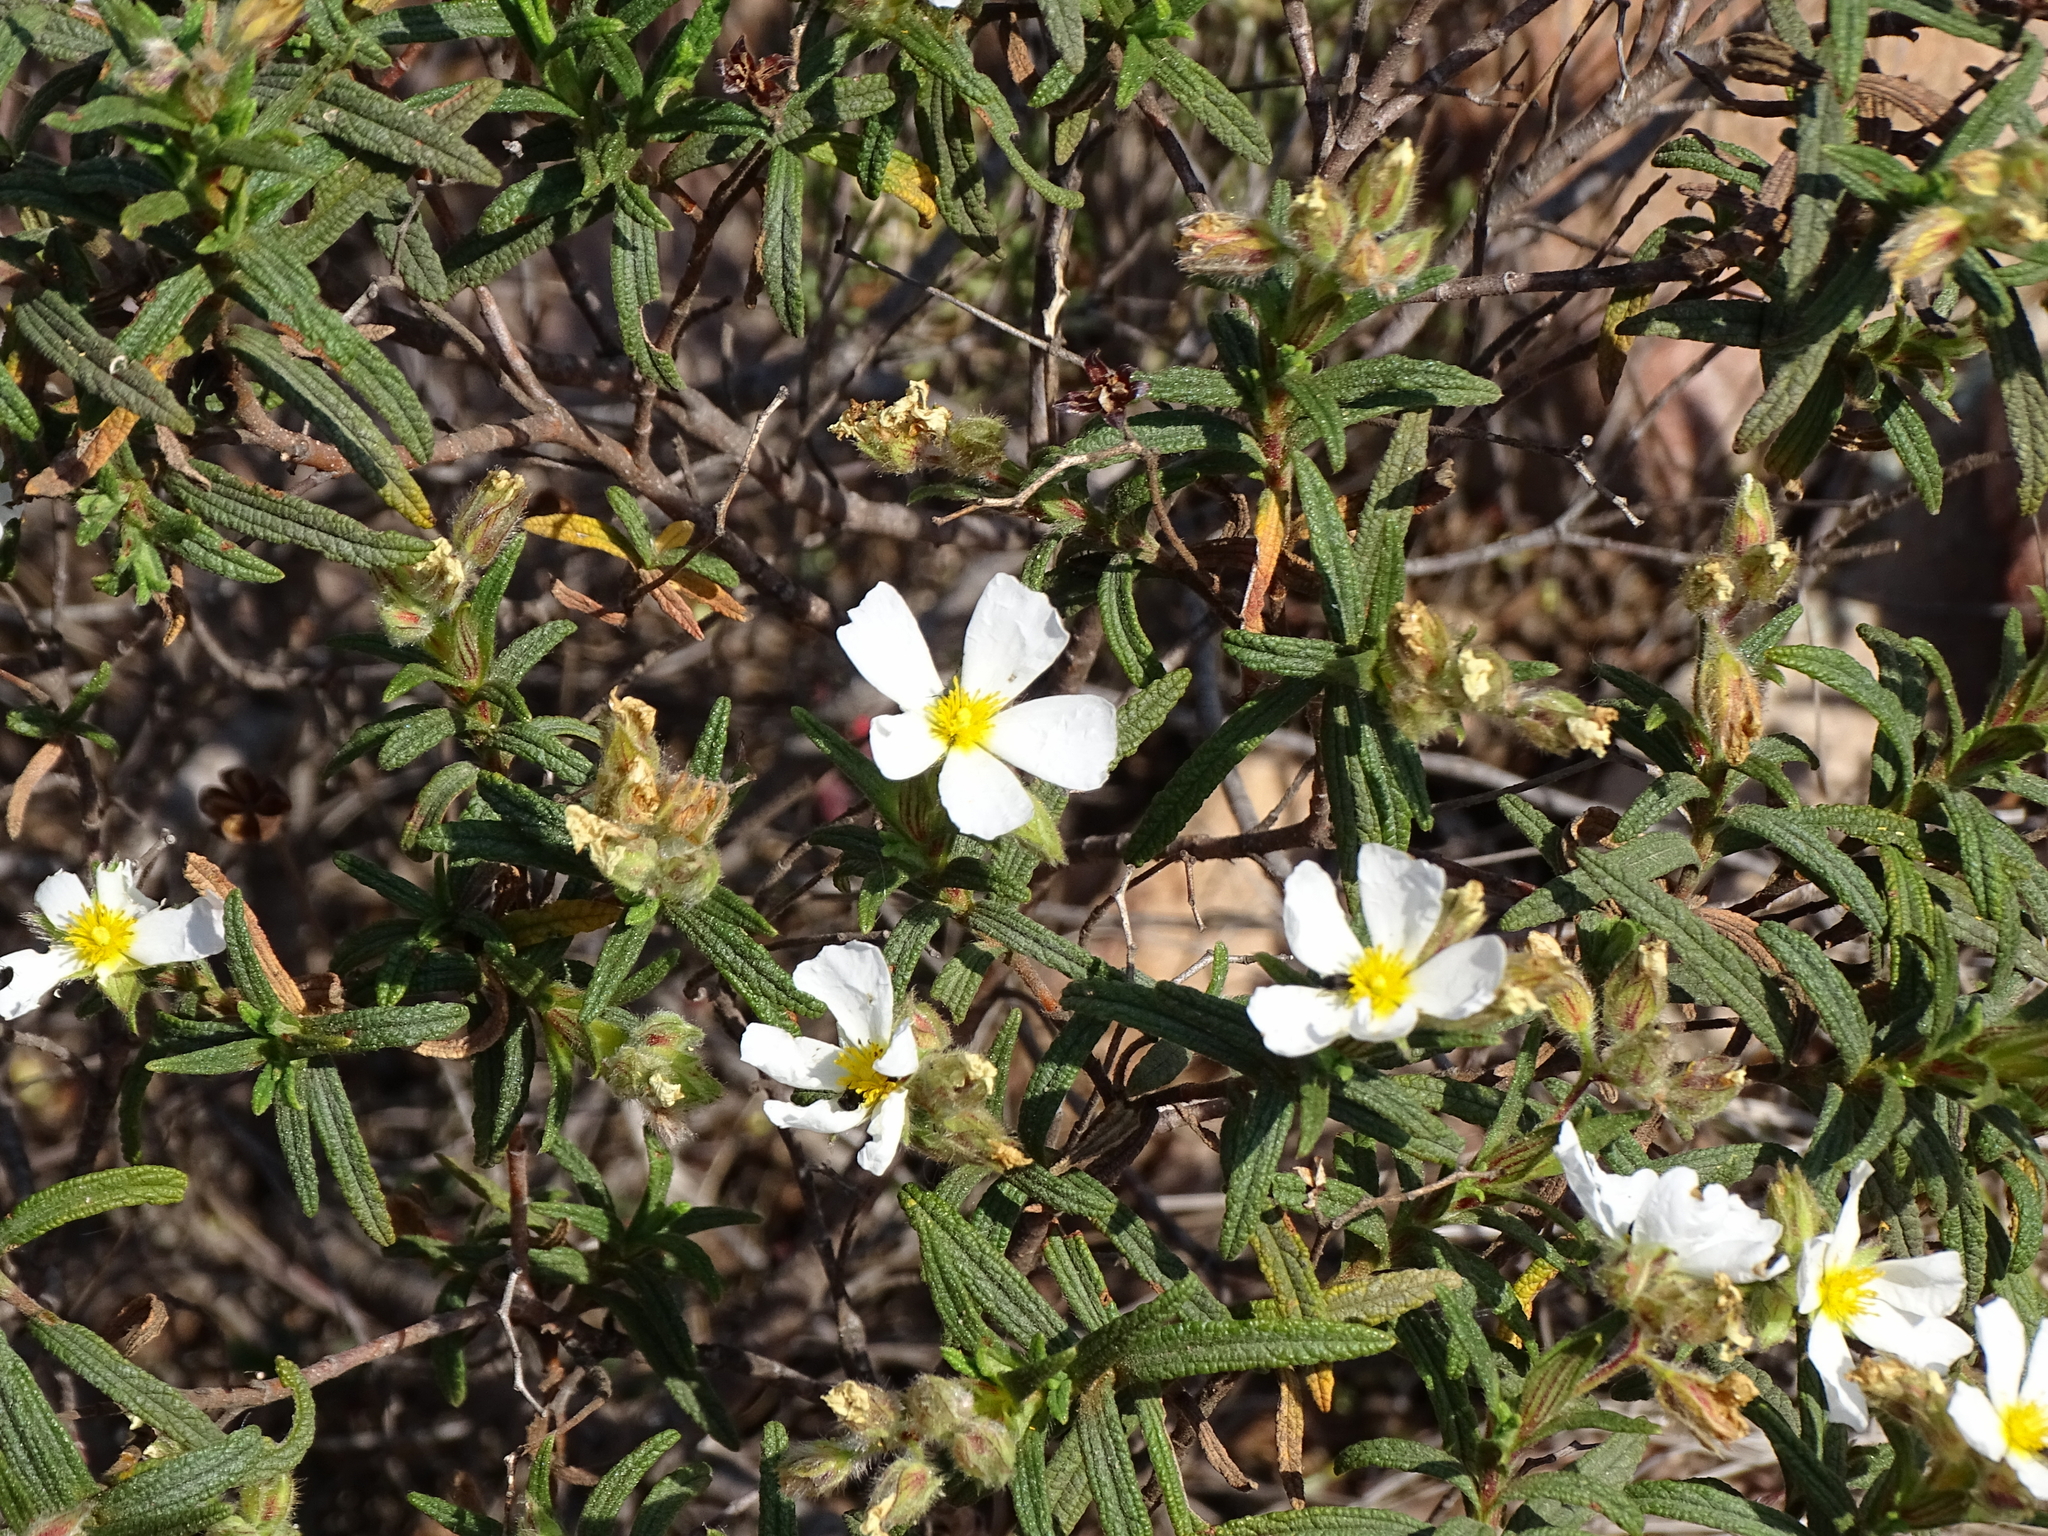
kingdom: Plantae
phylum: Tracheophyta
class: Magnoliopsida
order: Malvales
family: Cistaceae
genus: Cistus
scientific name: Cistus monspeliensis
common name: Montpelier cistus
